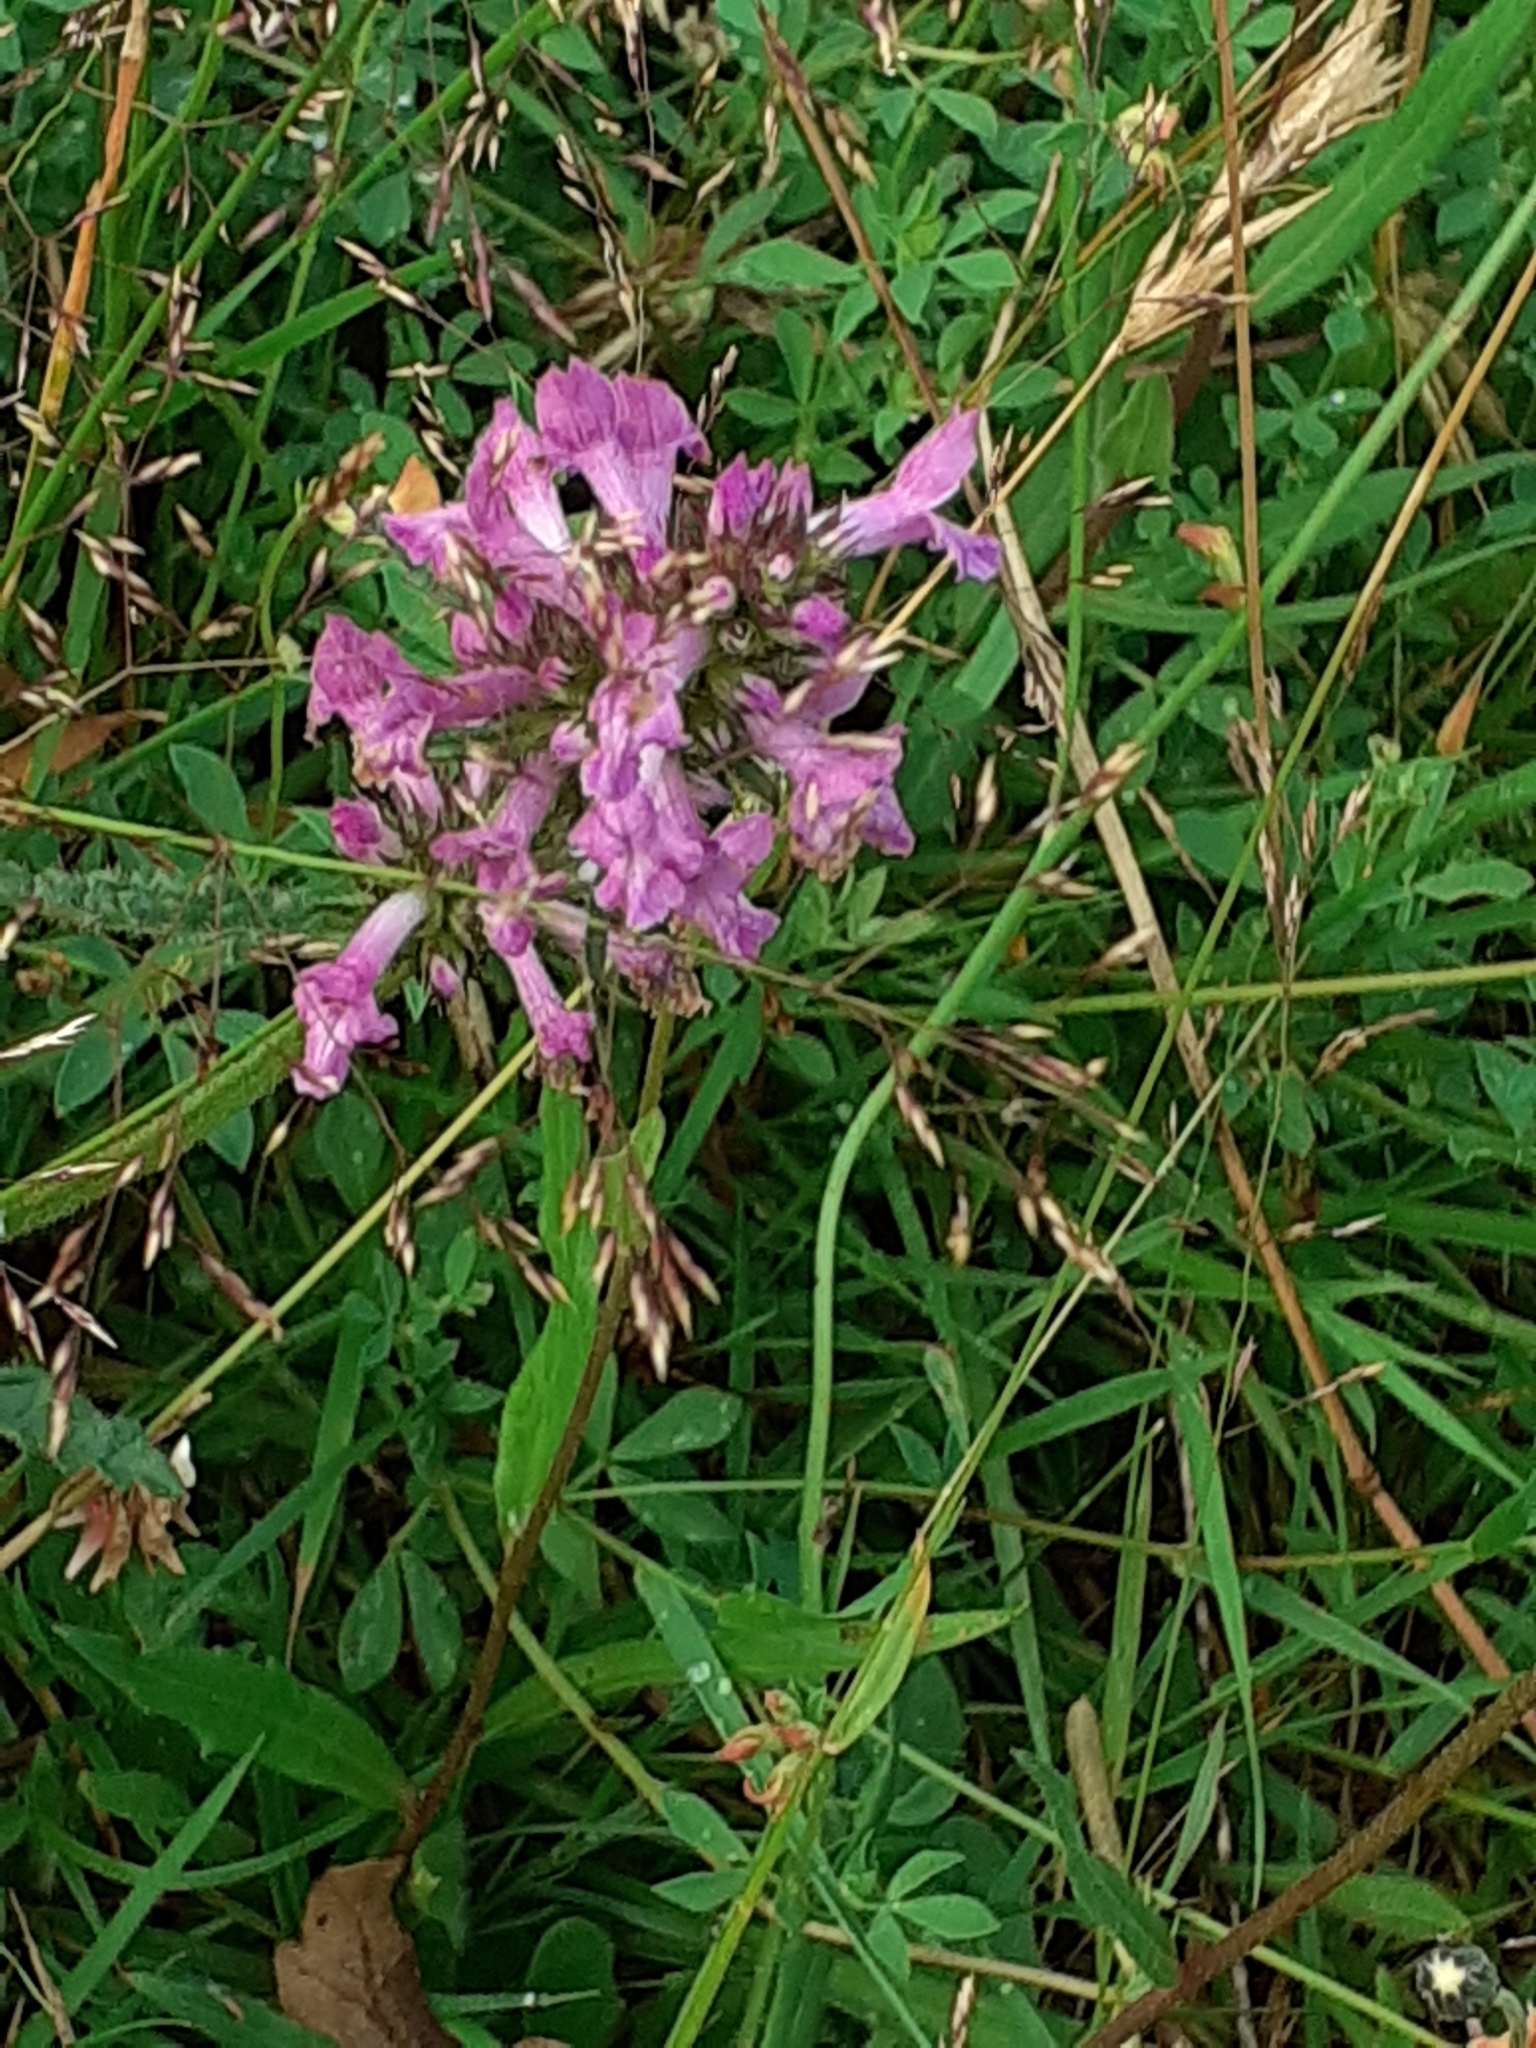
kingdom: Plantae
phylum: Tracheophyta
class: Magnoliopsida
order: Lamiales
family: Lamiaceae
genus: Betonica
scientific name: Betonica officinalis
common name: Bishop's-wort
